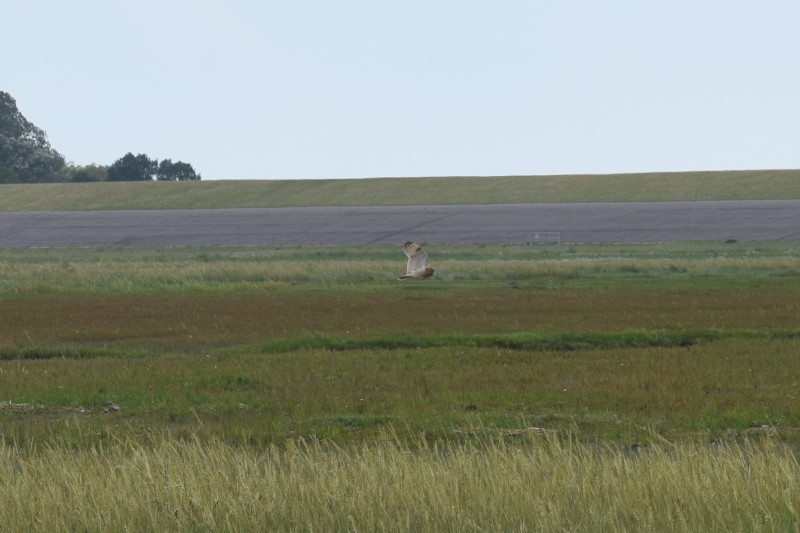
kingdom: Animalia
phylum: Chordata
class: Aves
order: Strigiformes
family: Strigidae
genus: Asio
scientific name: Asio flammeus
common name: Short-eared owl
